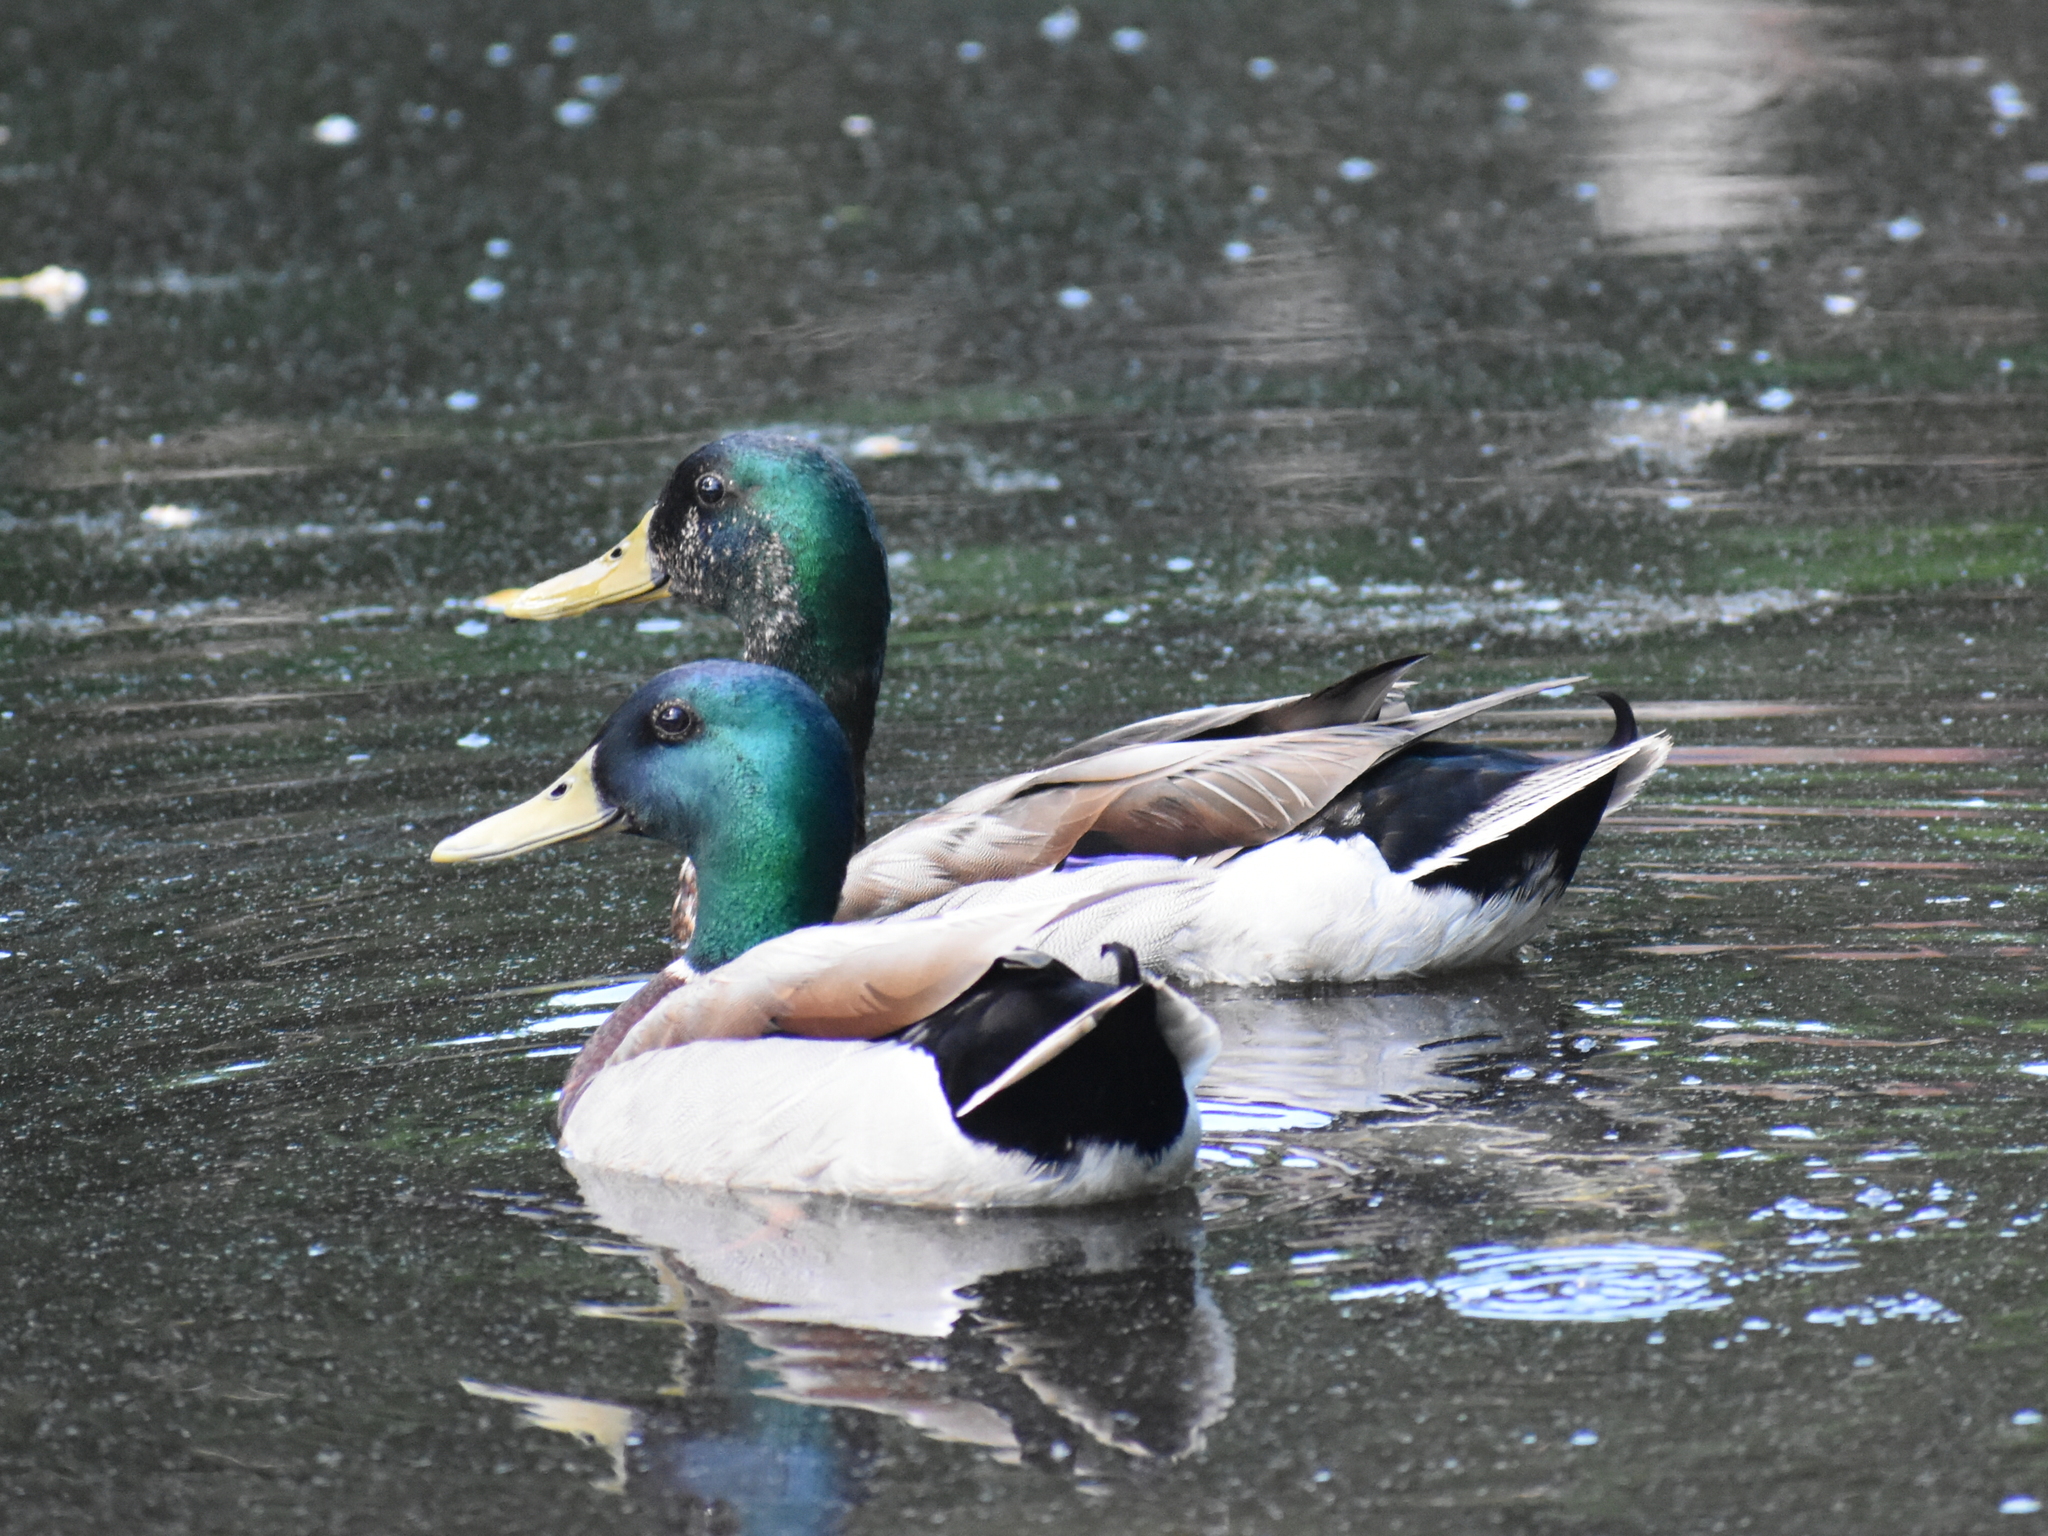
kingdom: Animalia
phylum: Chordata
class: Aves
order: Anseriformes
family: Anatidae
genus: Anas
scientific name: Anas platyrhynchos
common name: Mallard
